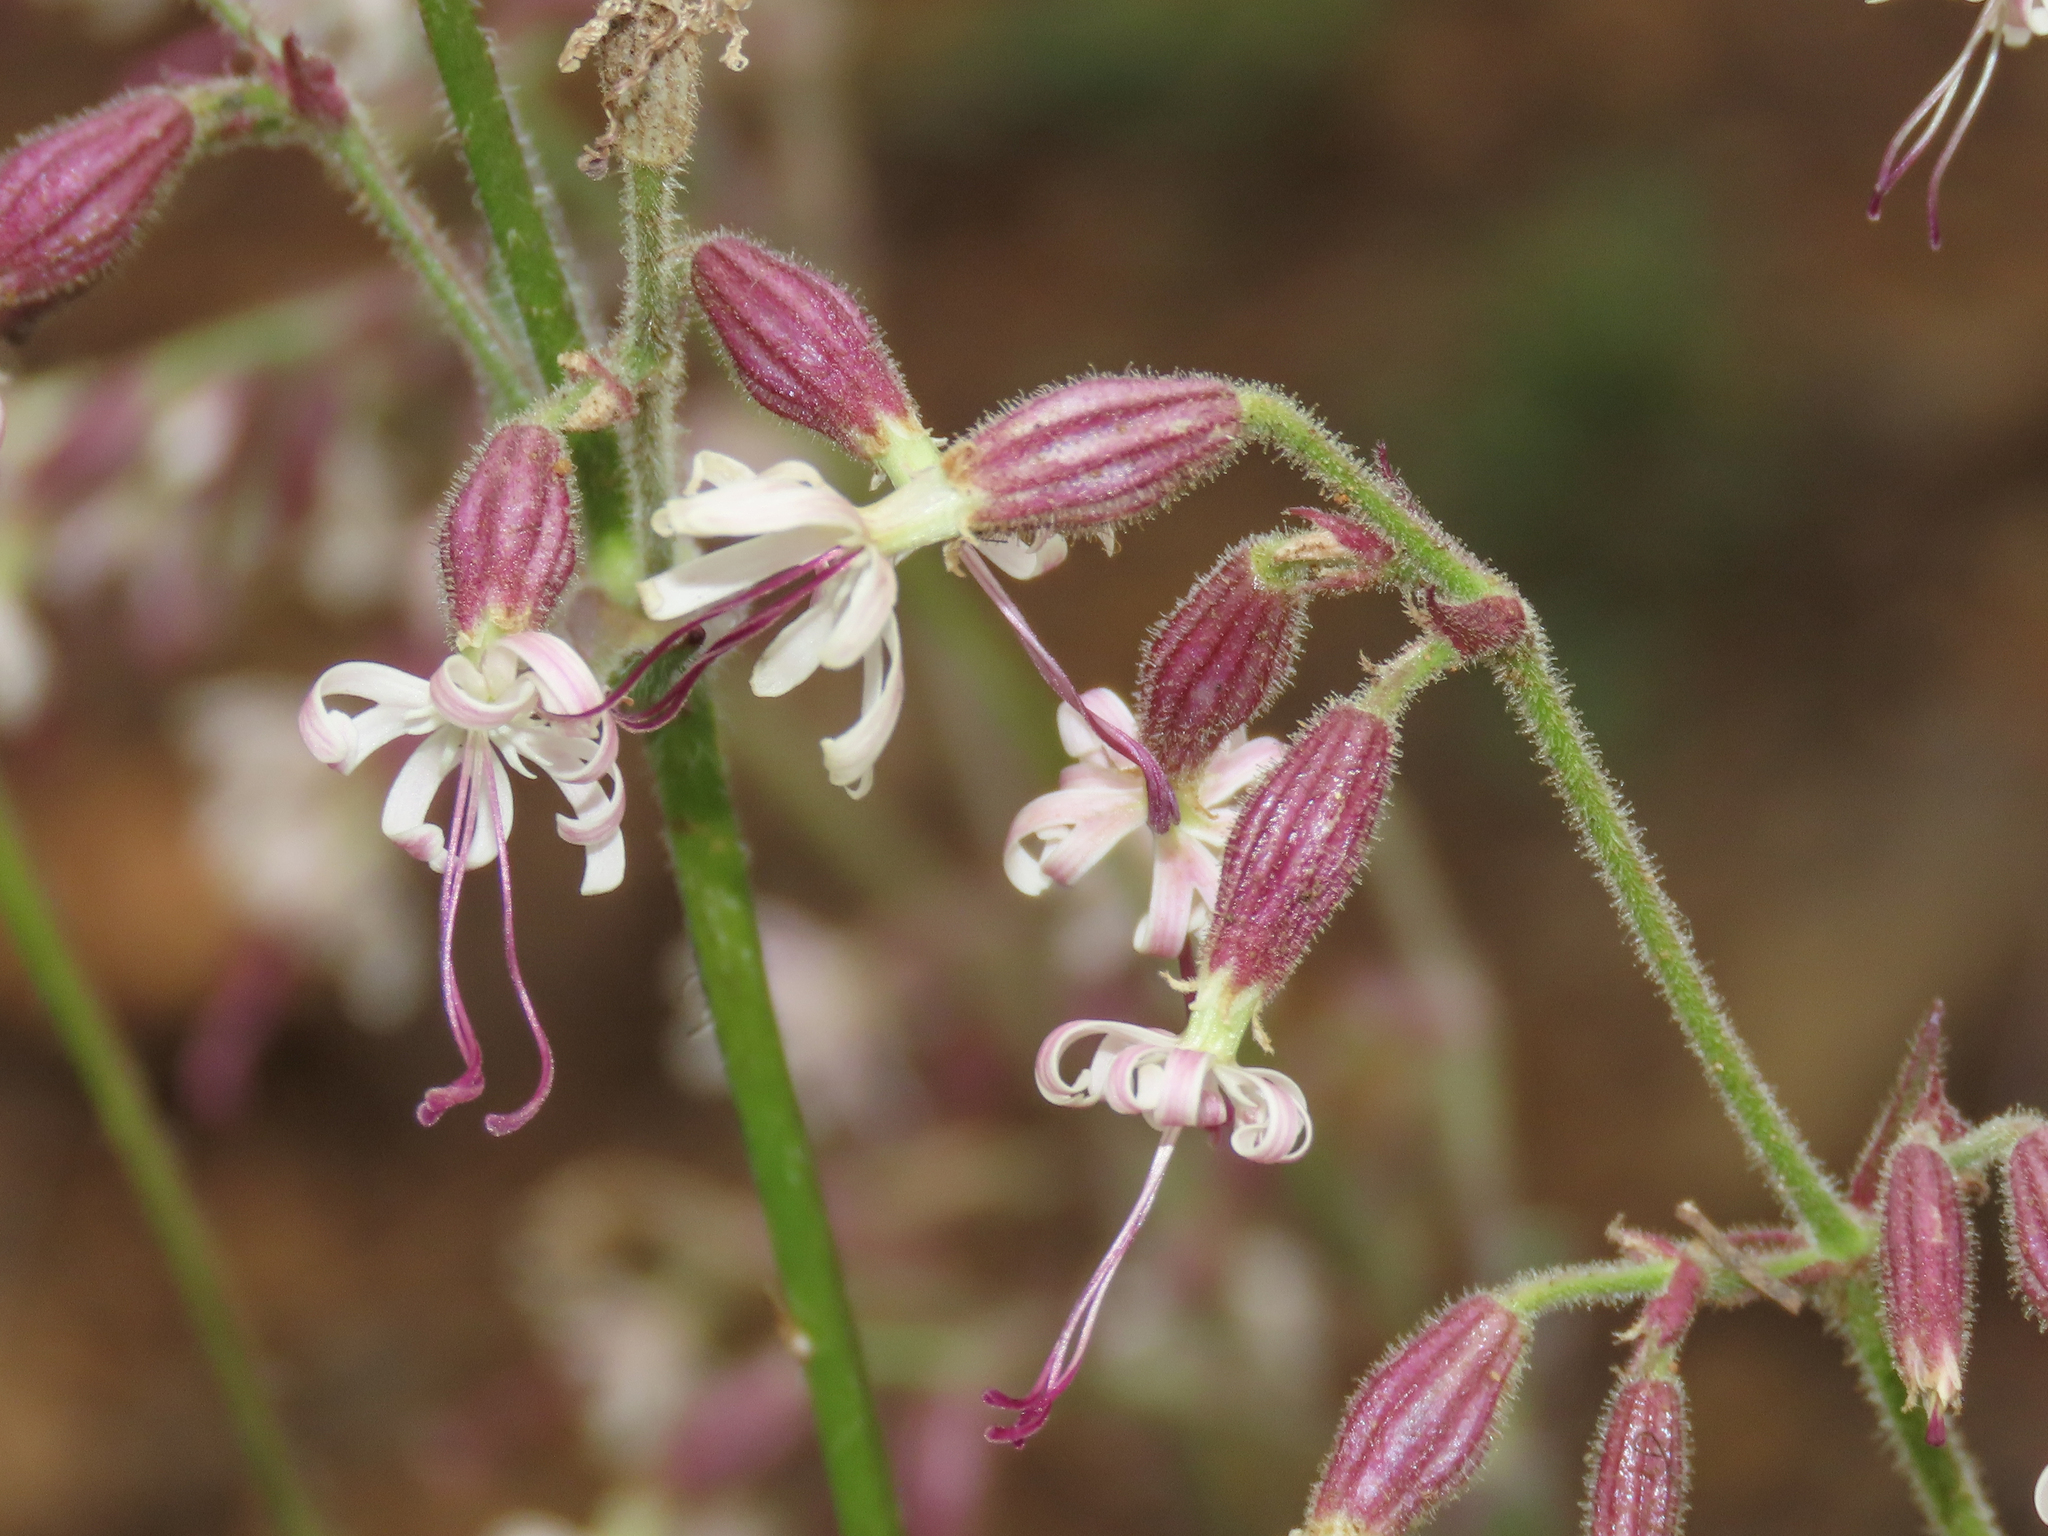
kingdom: Plantae
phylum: Tracheophyta
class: Magnoliopsida
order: Caryophyllales
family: Caryophyllaceae
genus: Silene
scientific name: Silene nutans
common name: Nottingham catchfly
